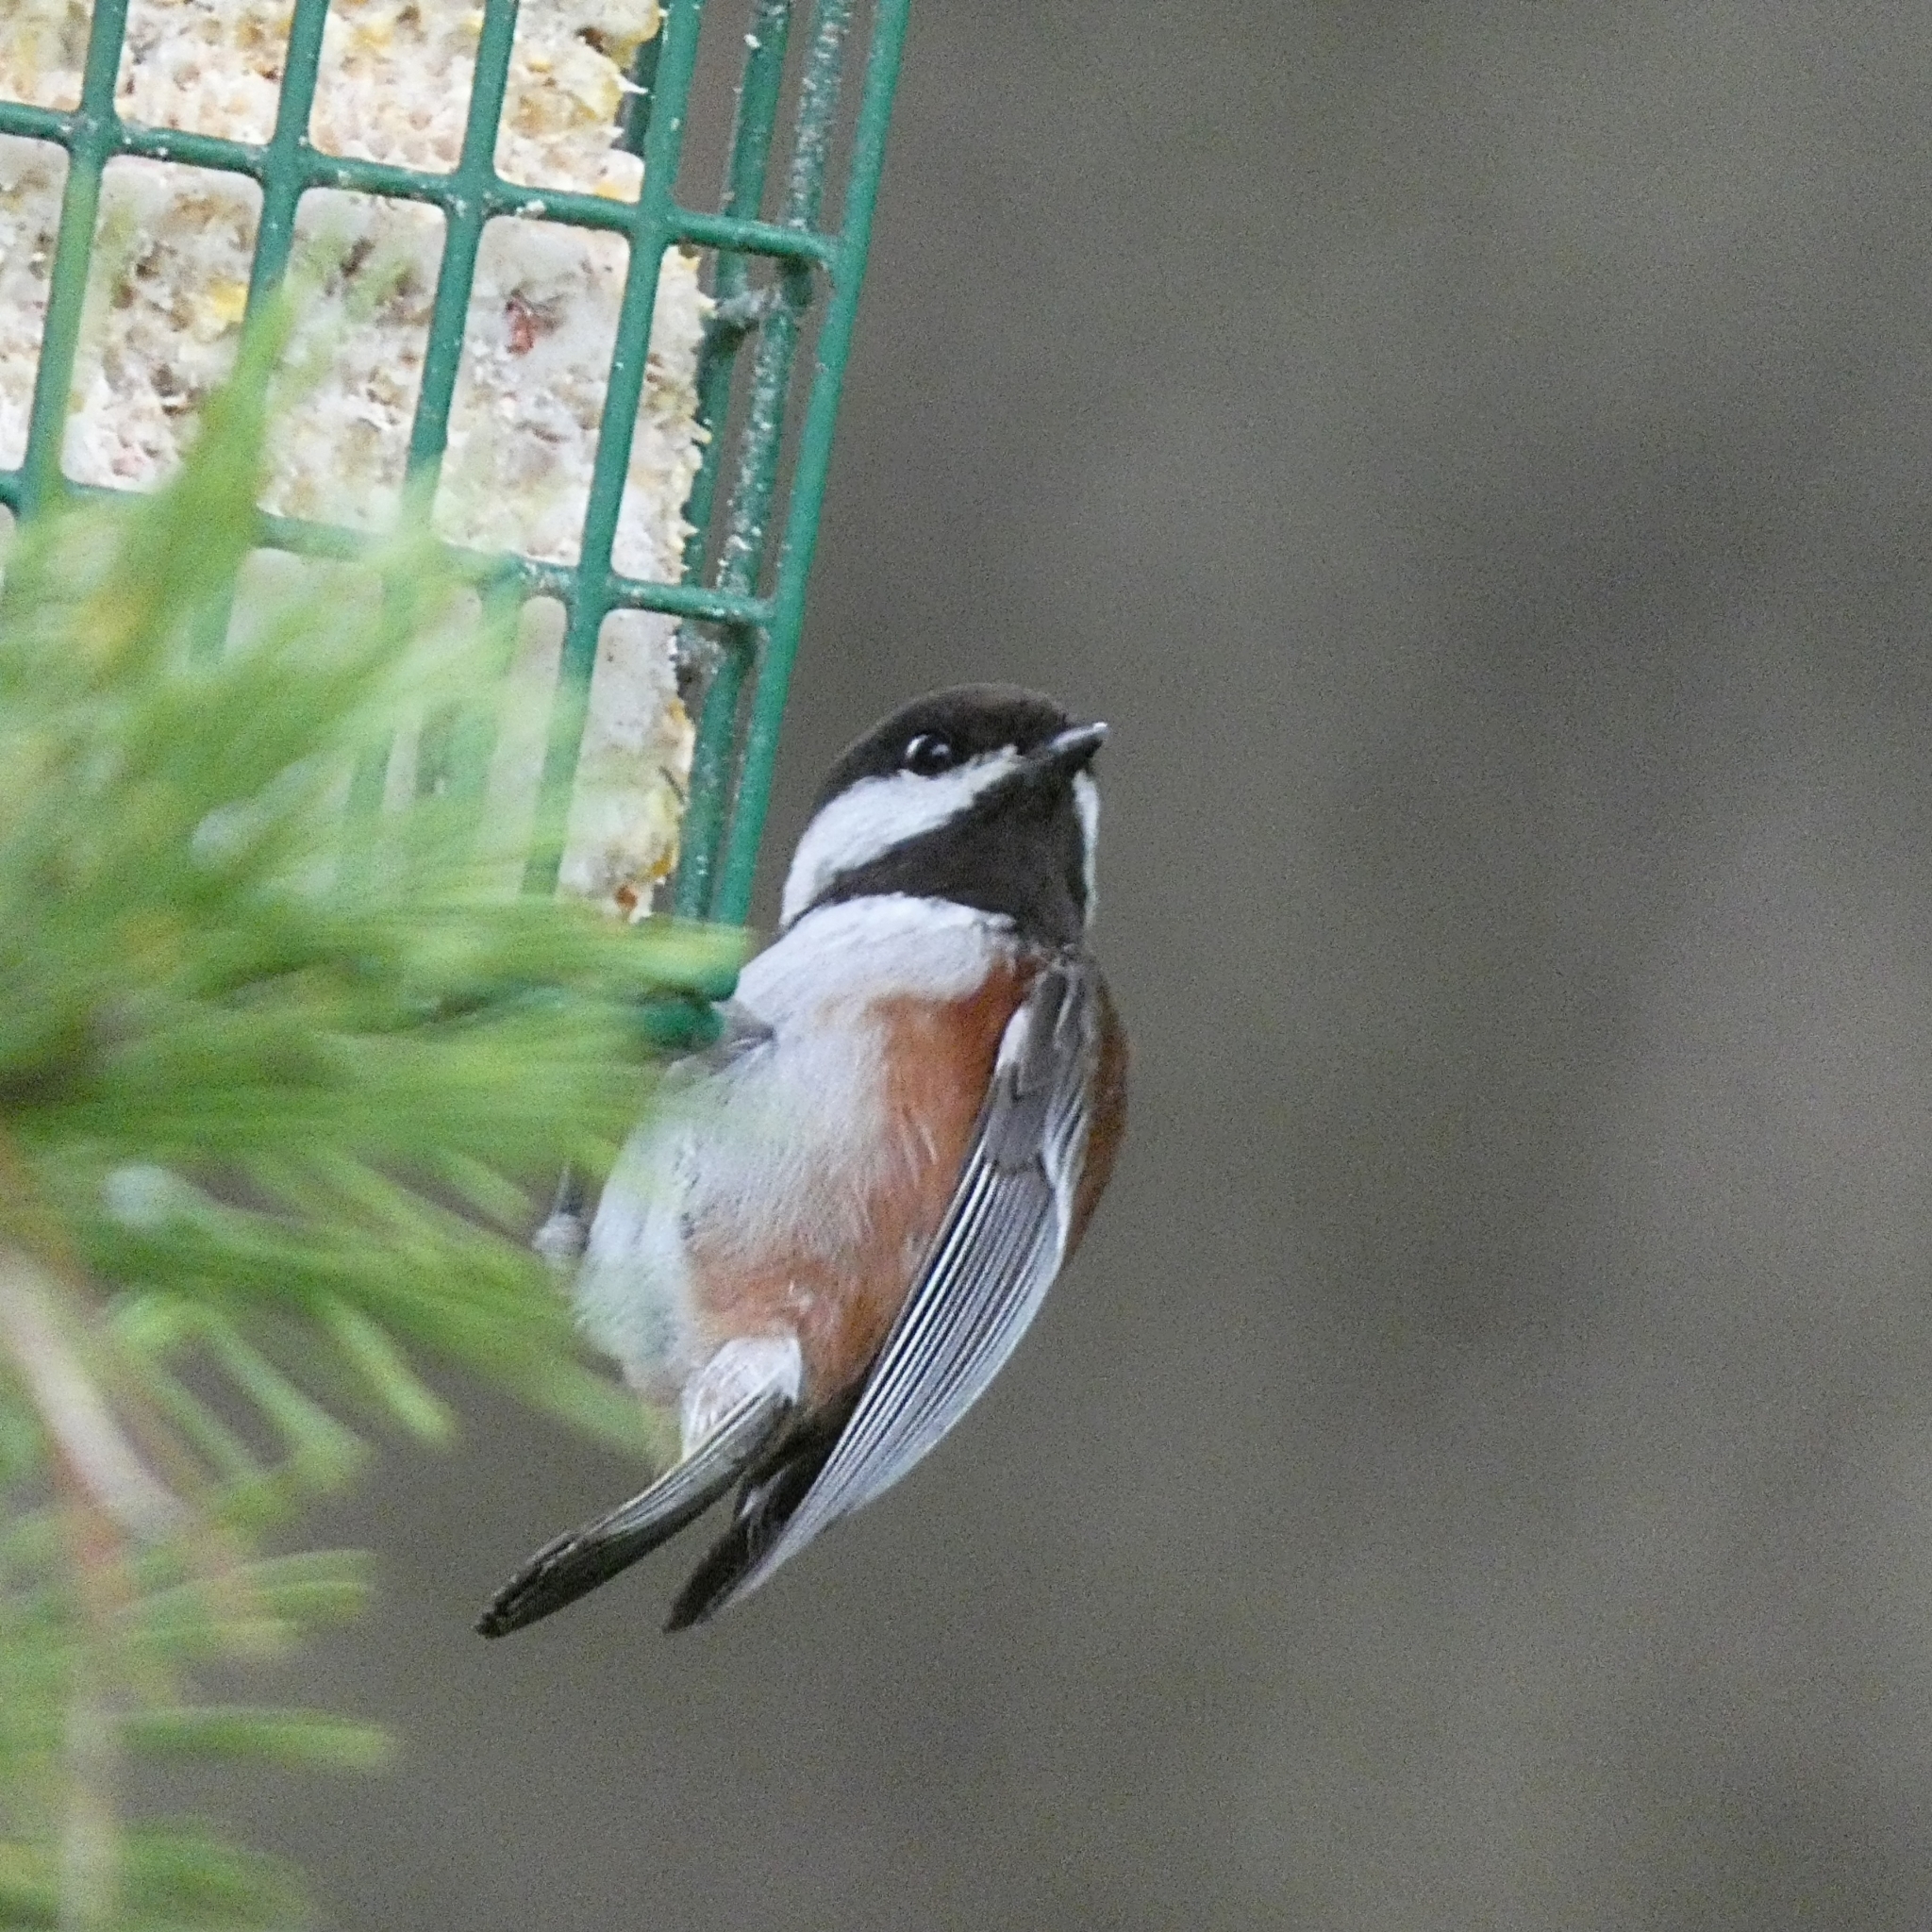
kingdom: Animalia
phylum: Chordata
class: Aves
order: Passeriformes
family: Paridae
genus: Poecile
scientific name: Poecile rufescens
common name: Chestnut-backed chickadee
